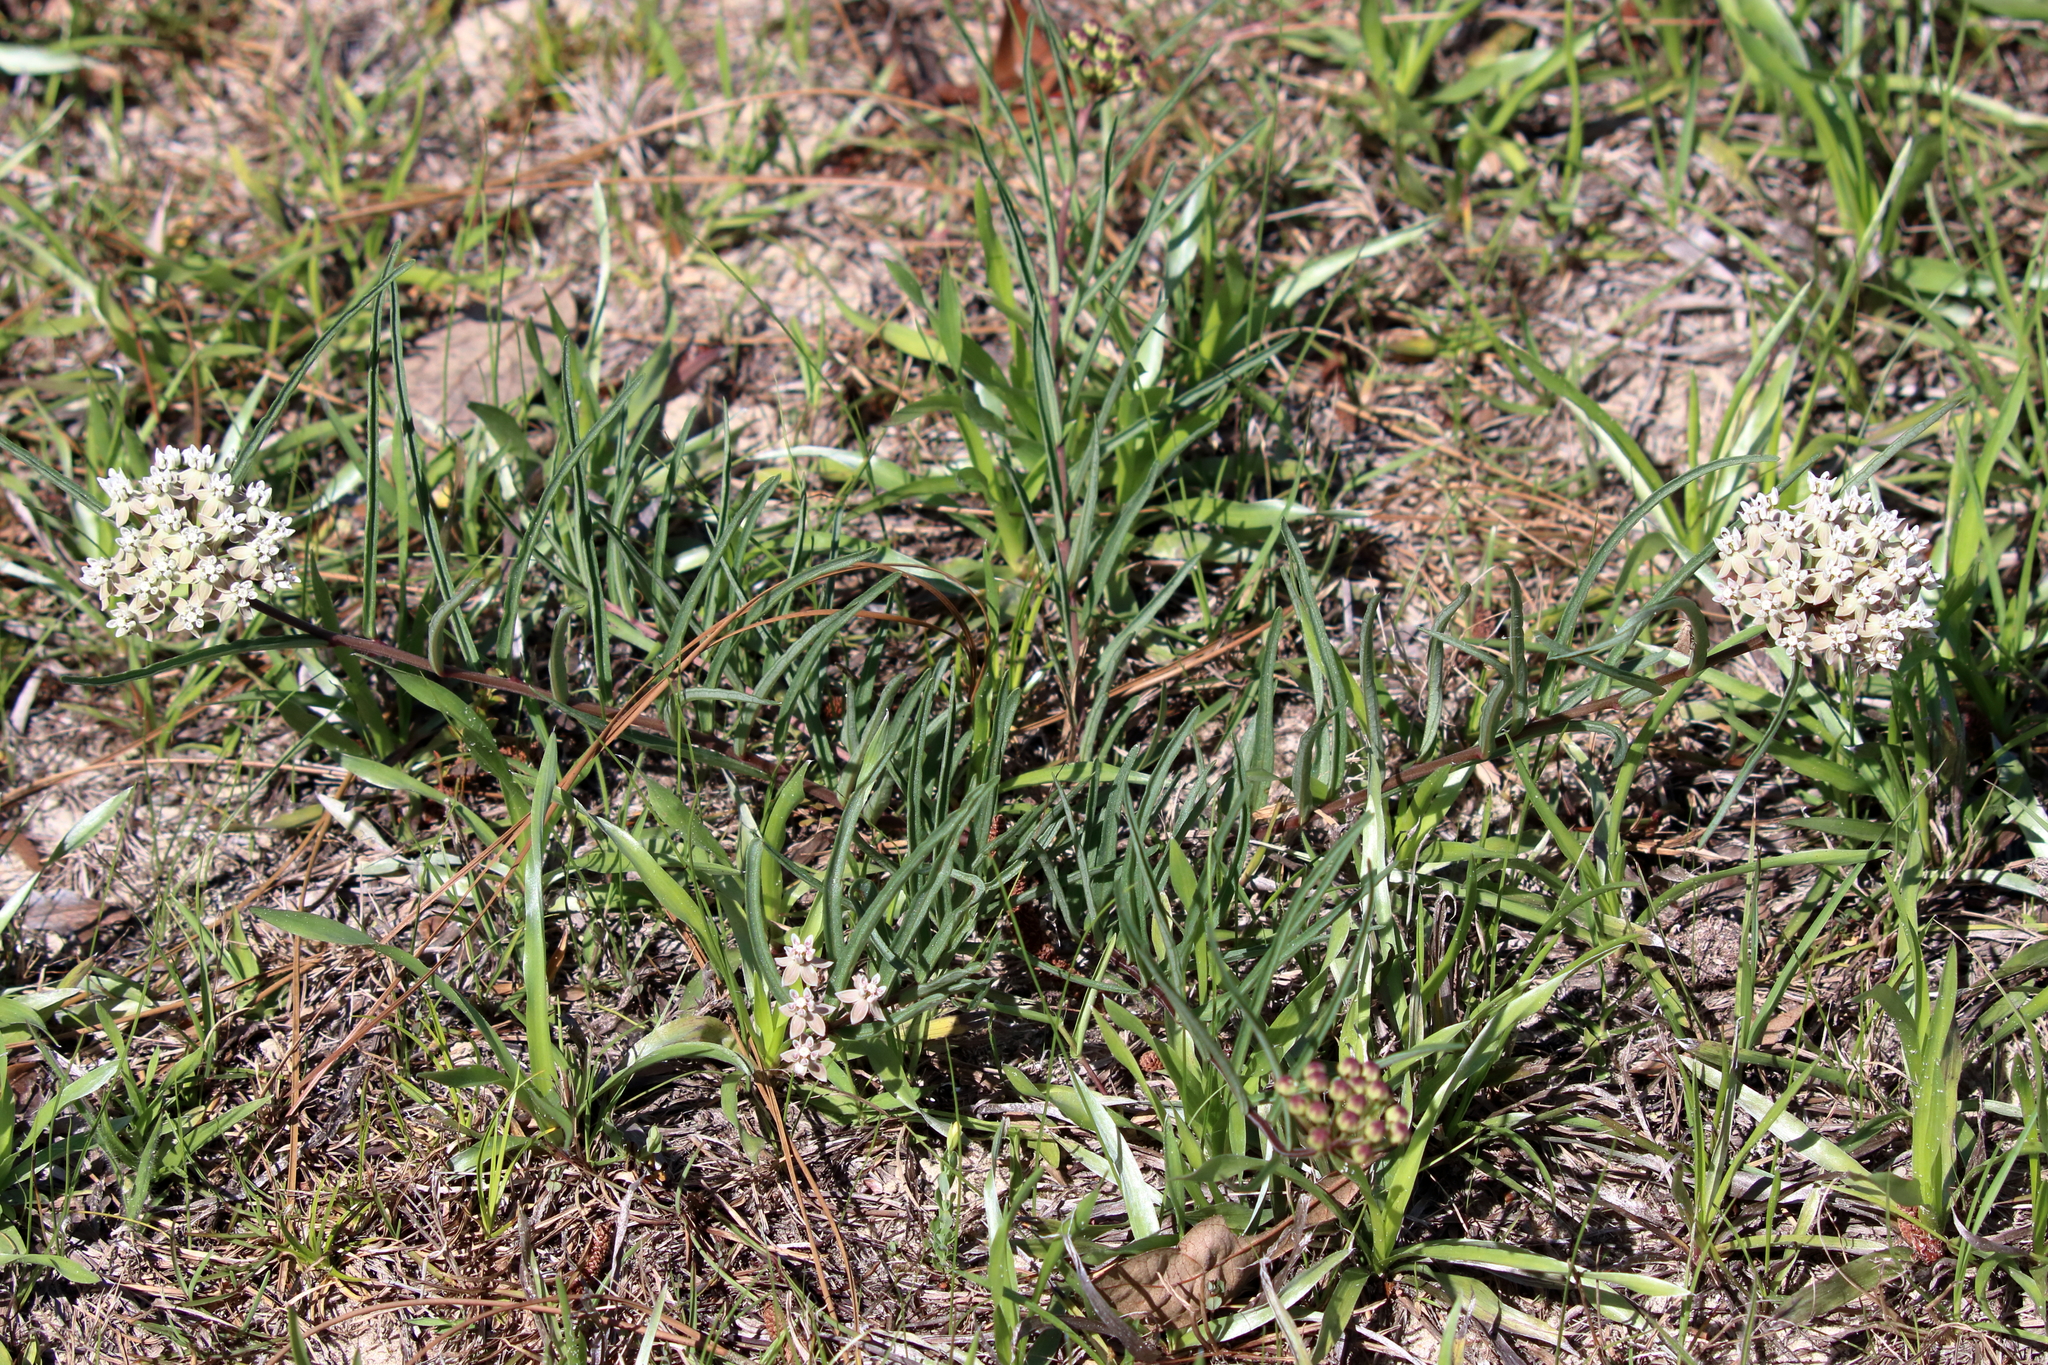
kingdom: Plantae
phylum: Tracheophyta
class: Magnoliopsida
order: Gentianales
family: Apocynaceae
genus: Asclepias
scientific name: Asclepias michauxii
